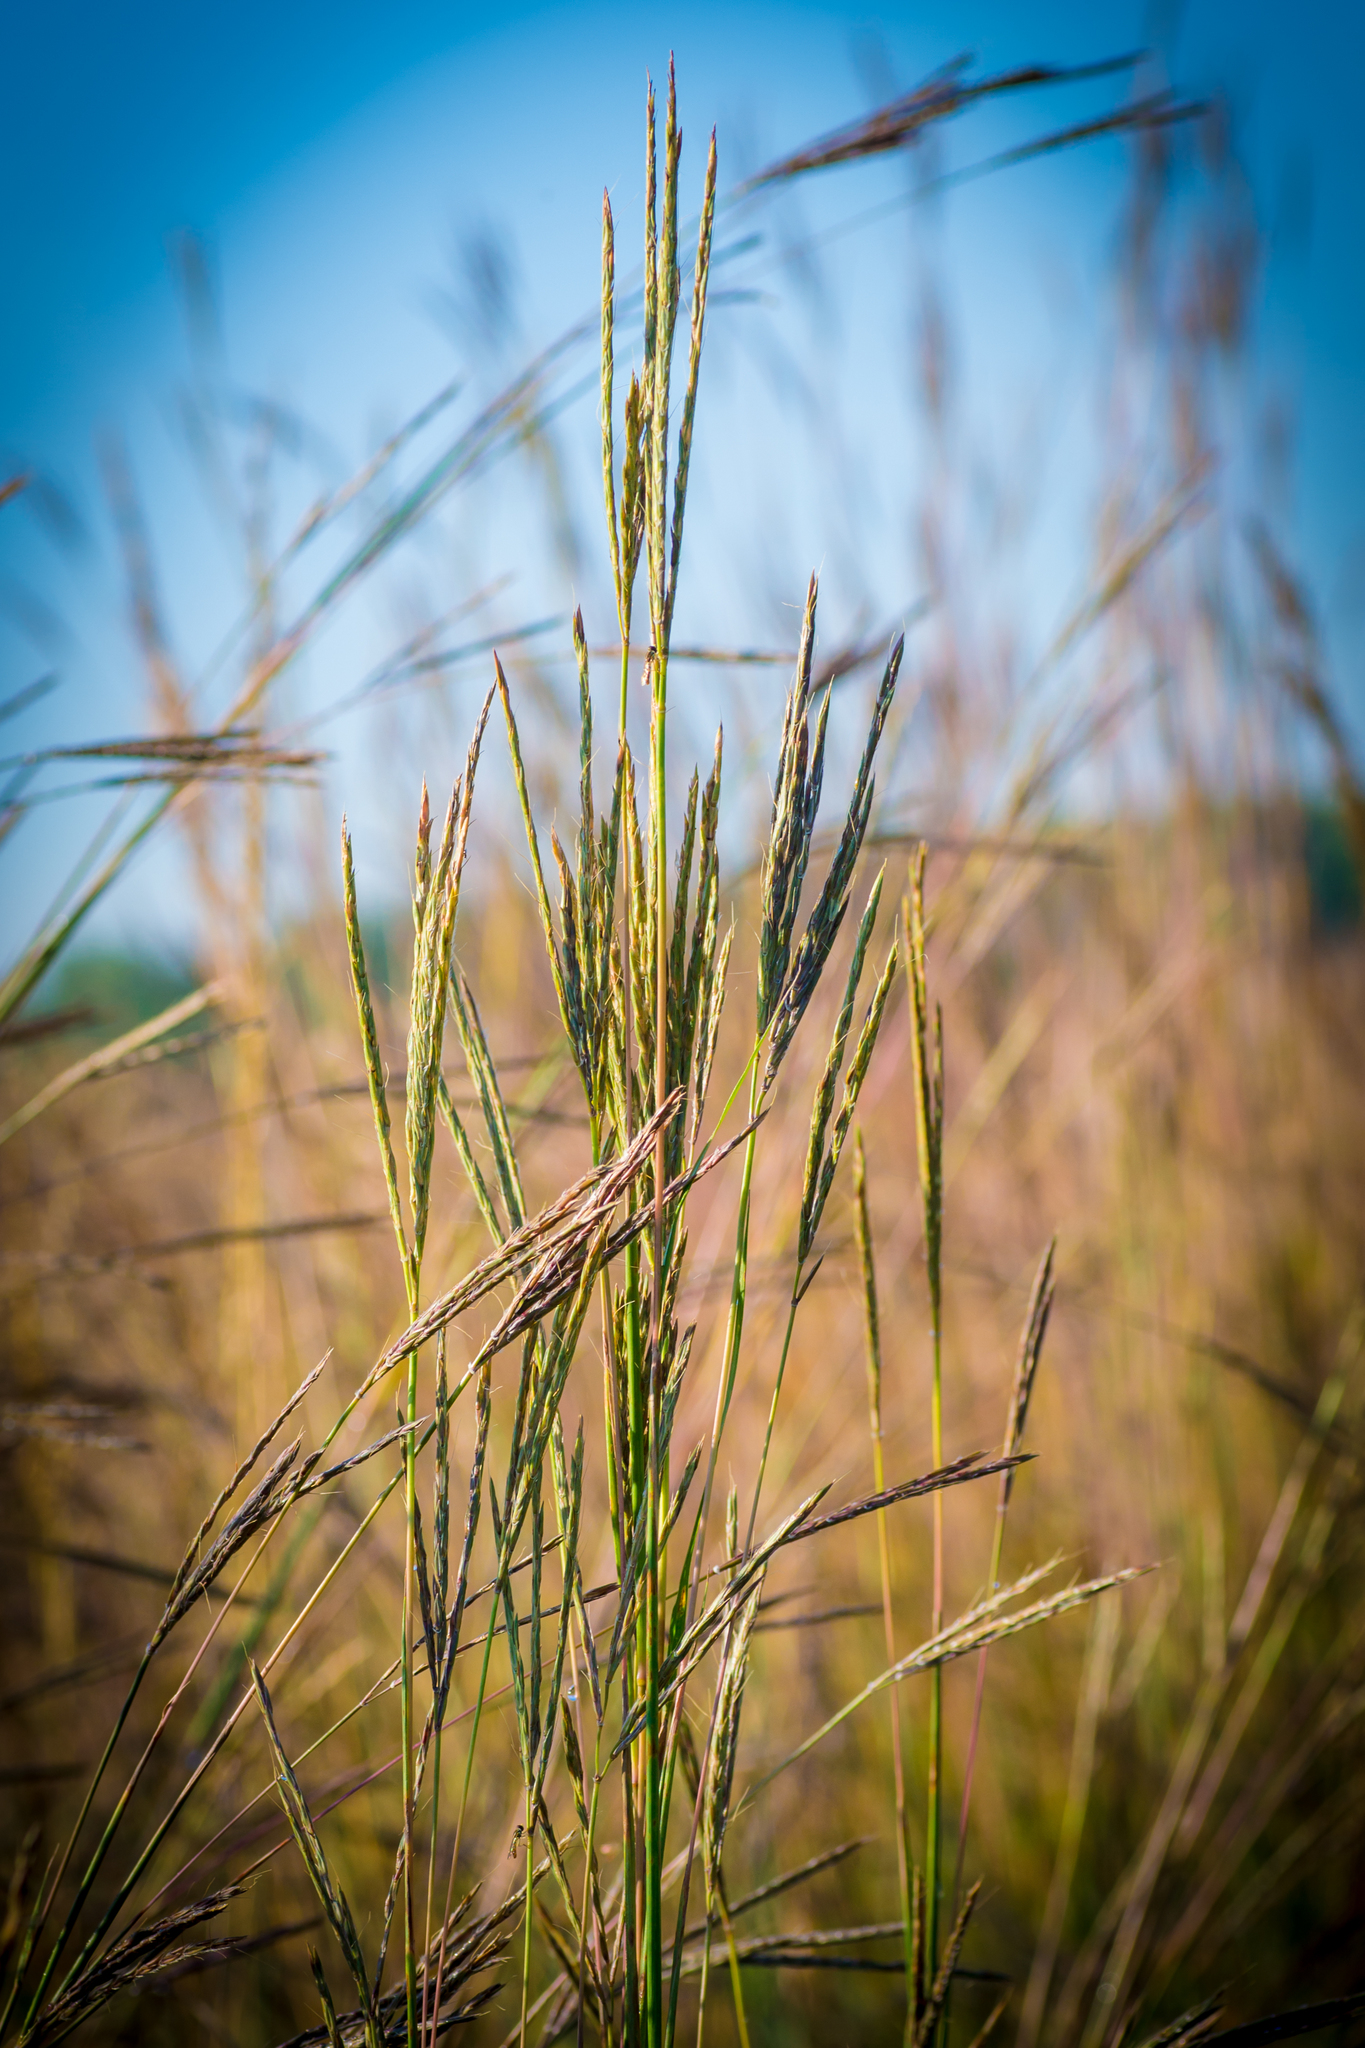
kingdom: Plantae
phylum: Tracheophyta
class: Liliopsida
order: Poales
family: Poaceae
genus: Andropogon
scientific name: Andropogon gerardi
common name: Big bluestem
